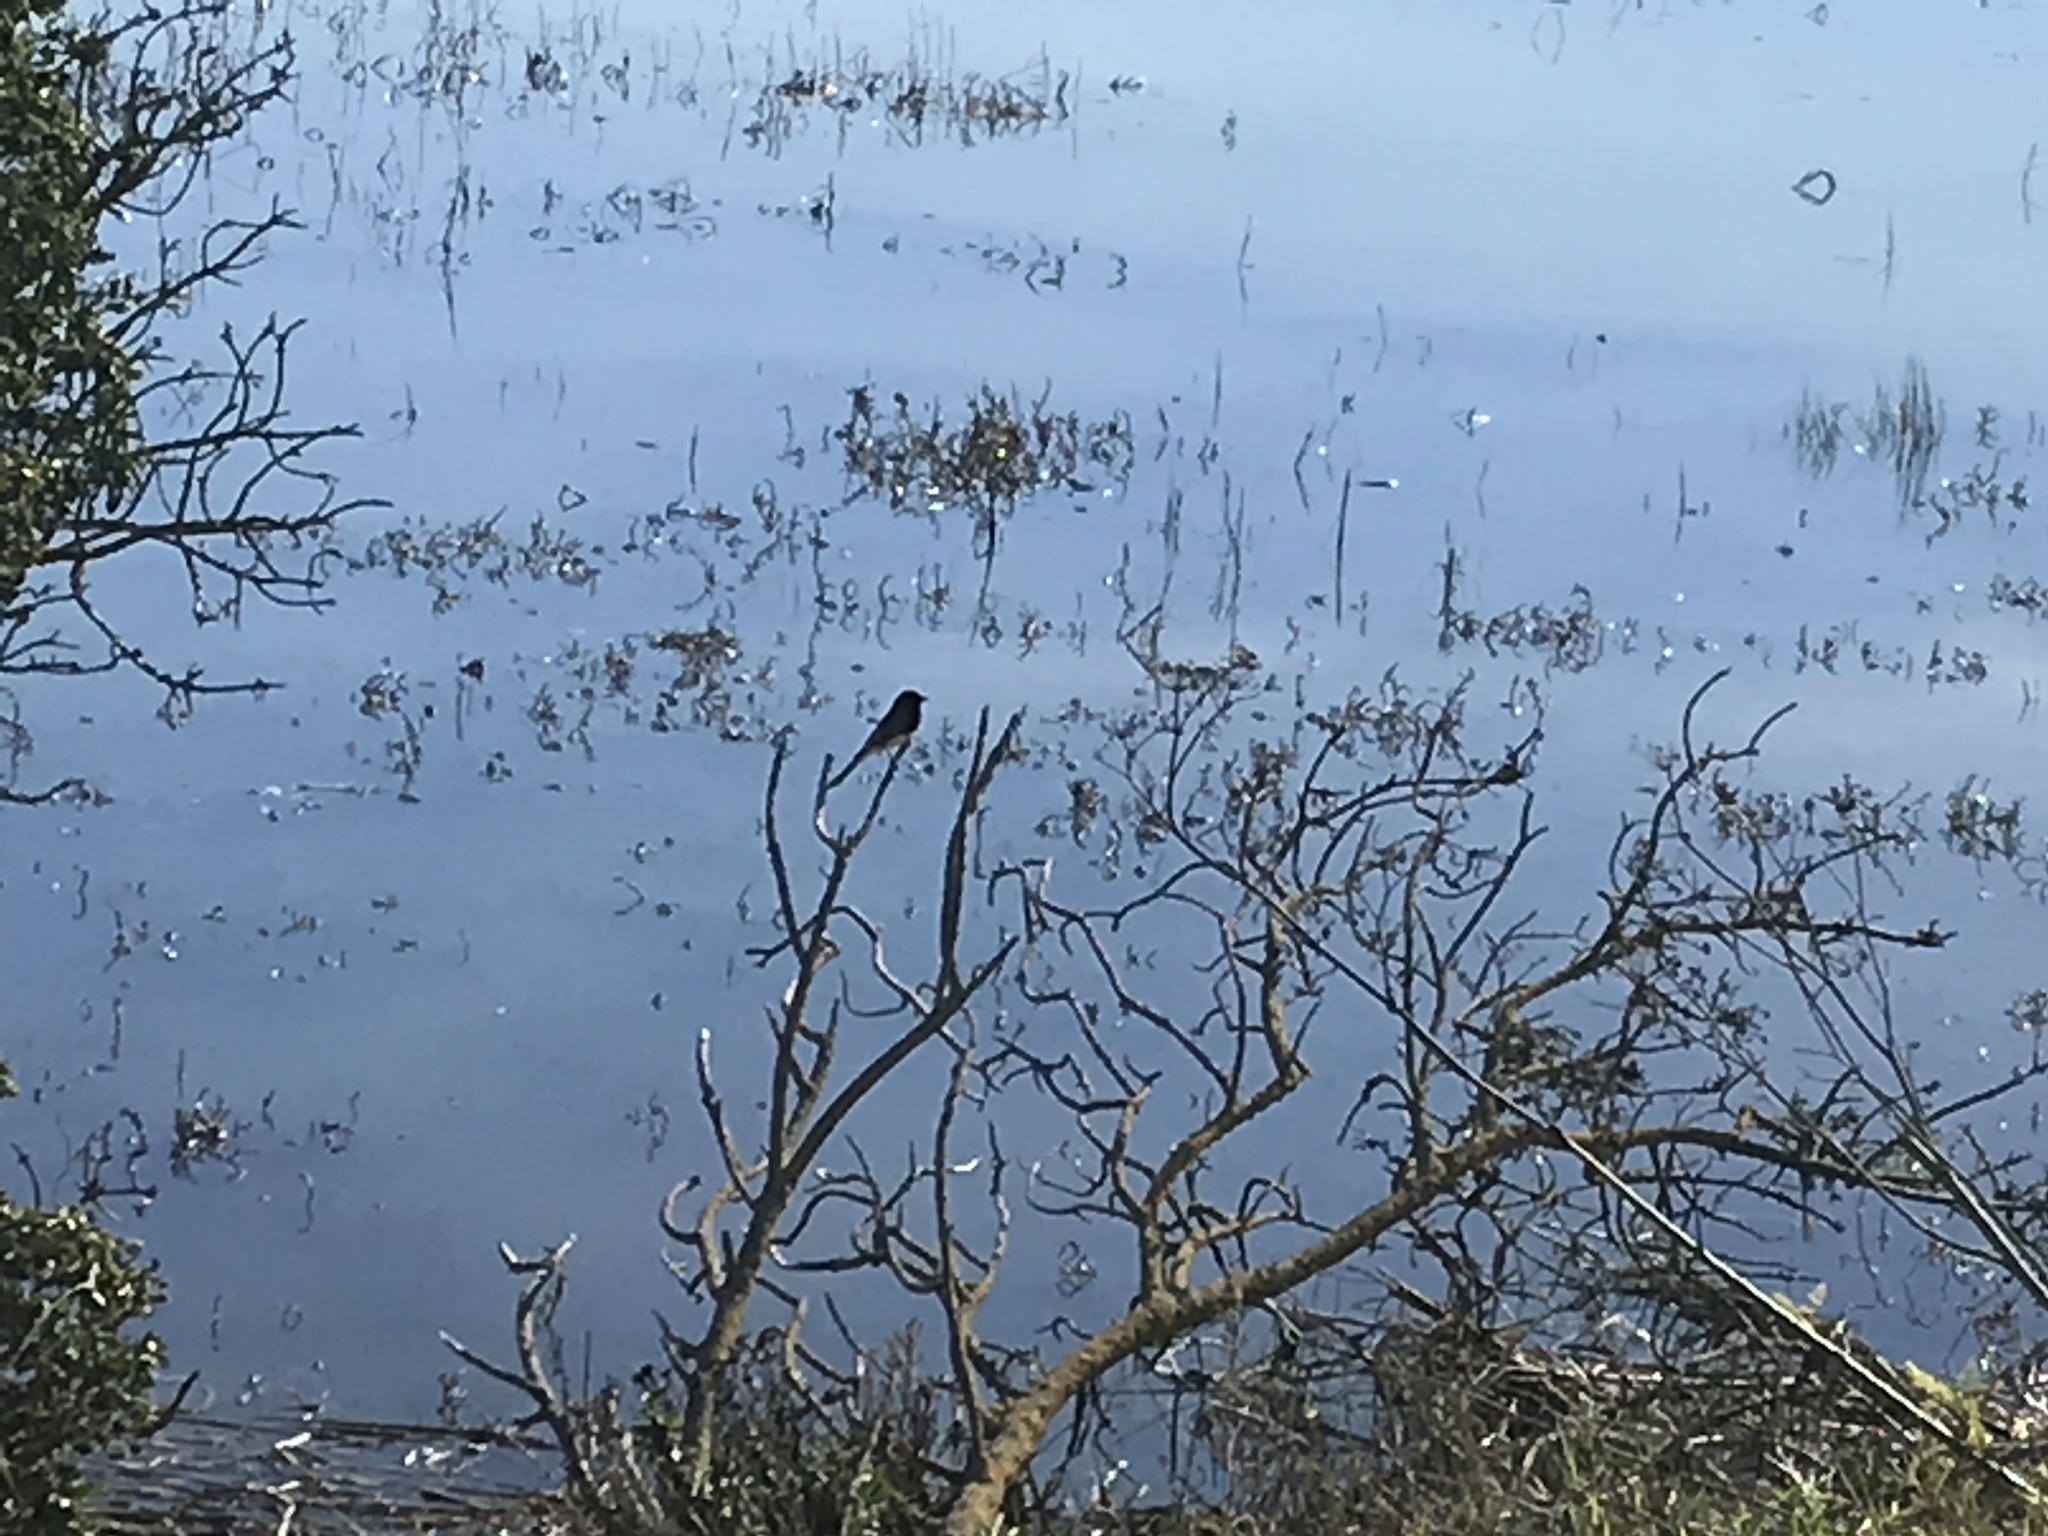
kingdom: Animalia
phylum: Chordata
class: Aves
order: Passeriformes
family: Tyrannidae
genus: Sayornis
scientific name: Sayornis nigricans
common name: Black phoebe
